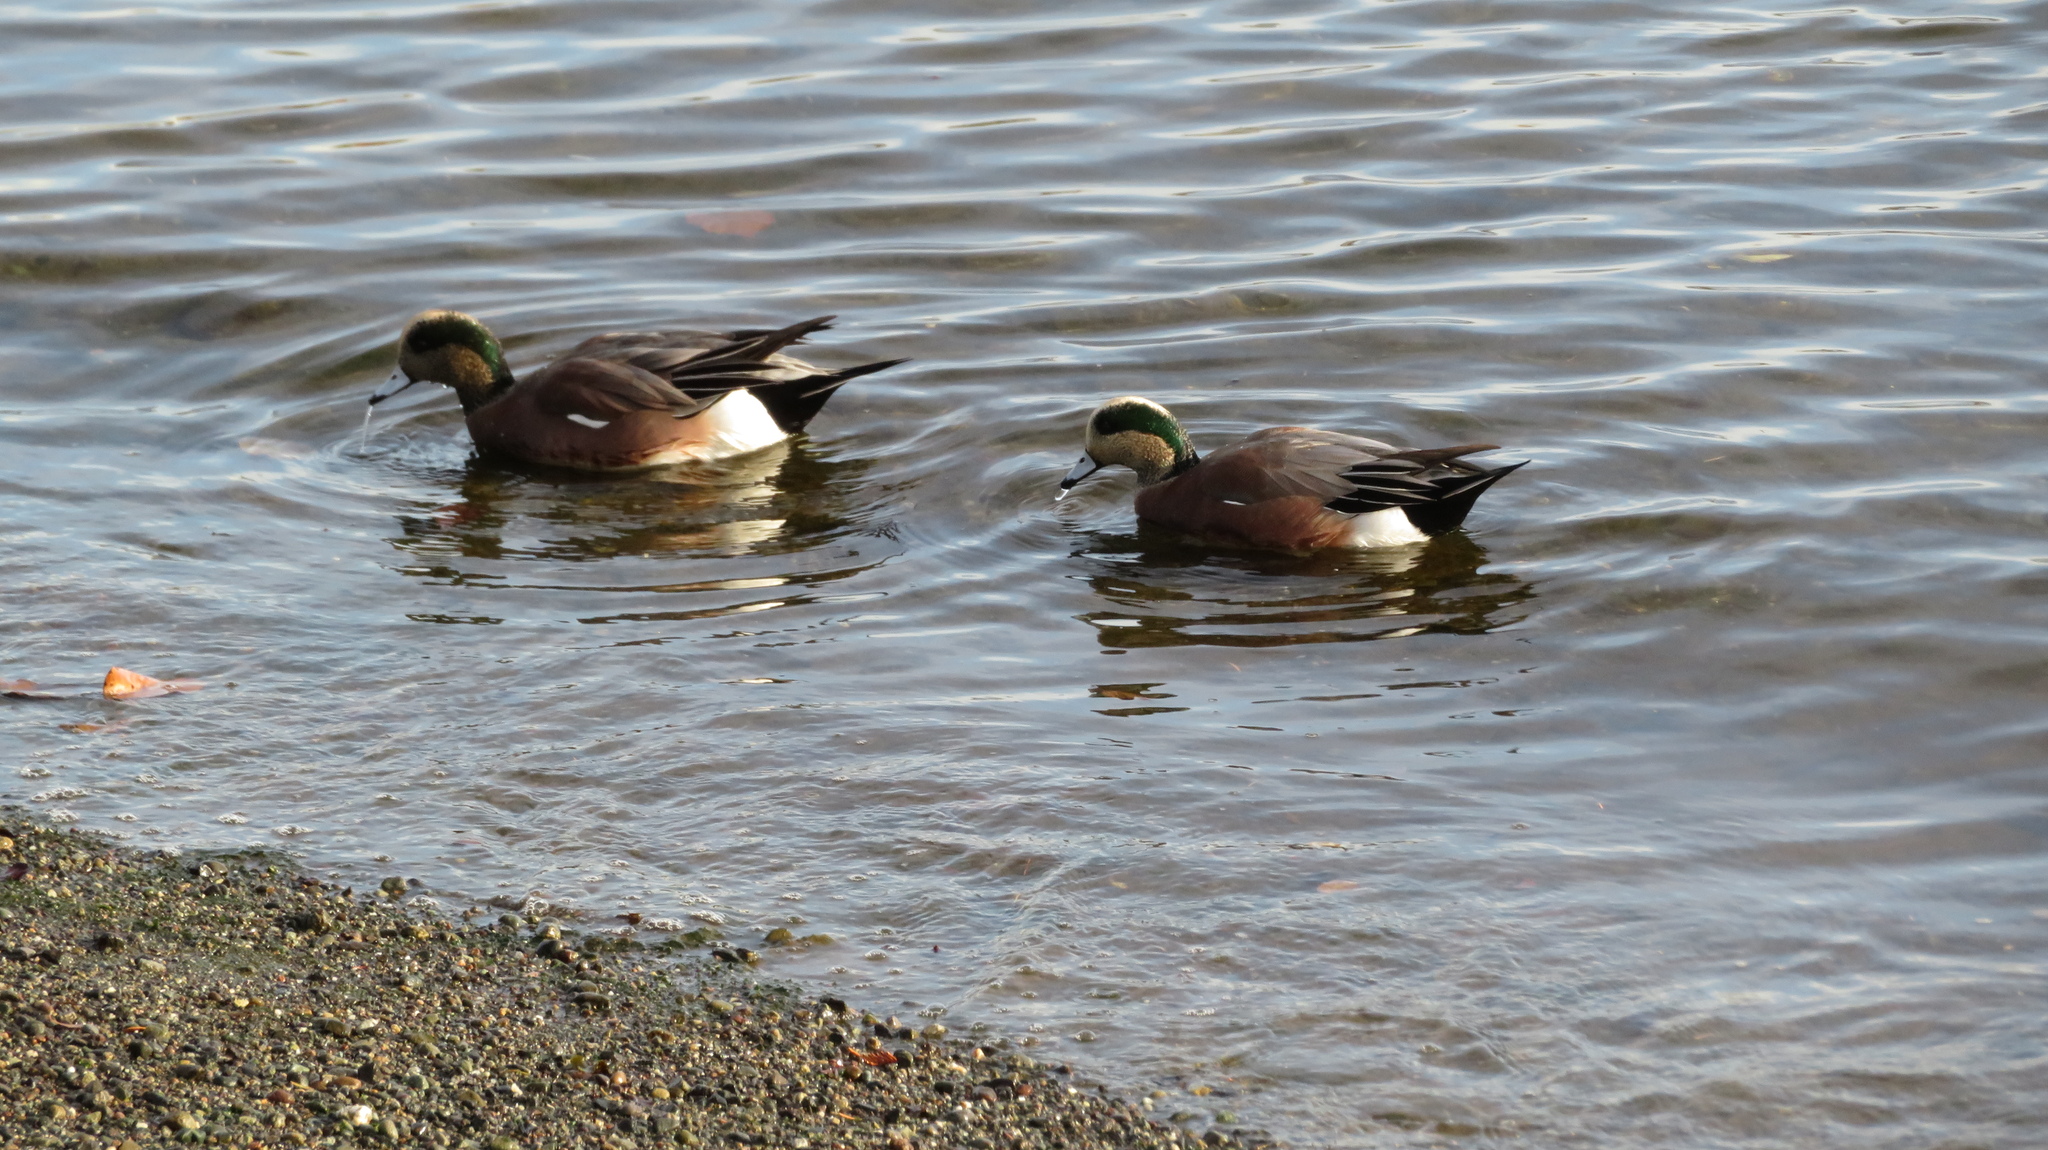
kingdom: Animalia
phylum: Chordata
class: Aves
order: Anseriformes
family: Anatidae
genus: Mareca
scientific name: Mareca americana
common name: American wigeon
